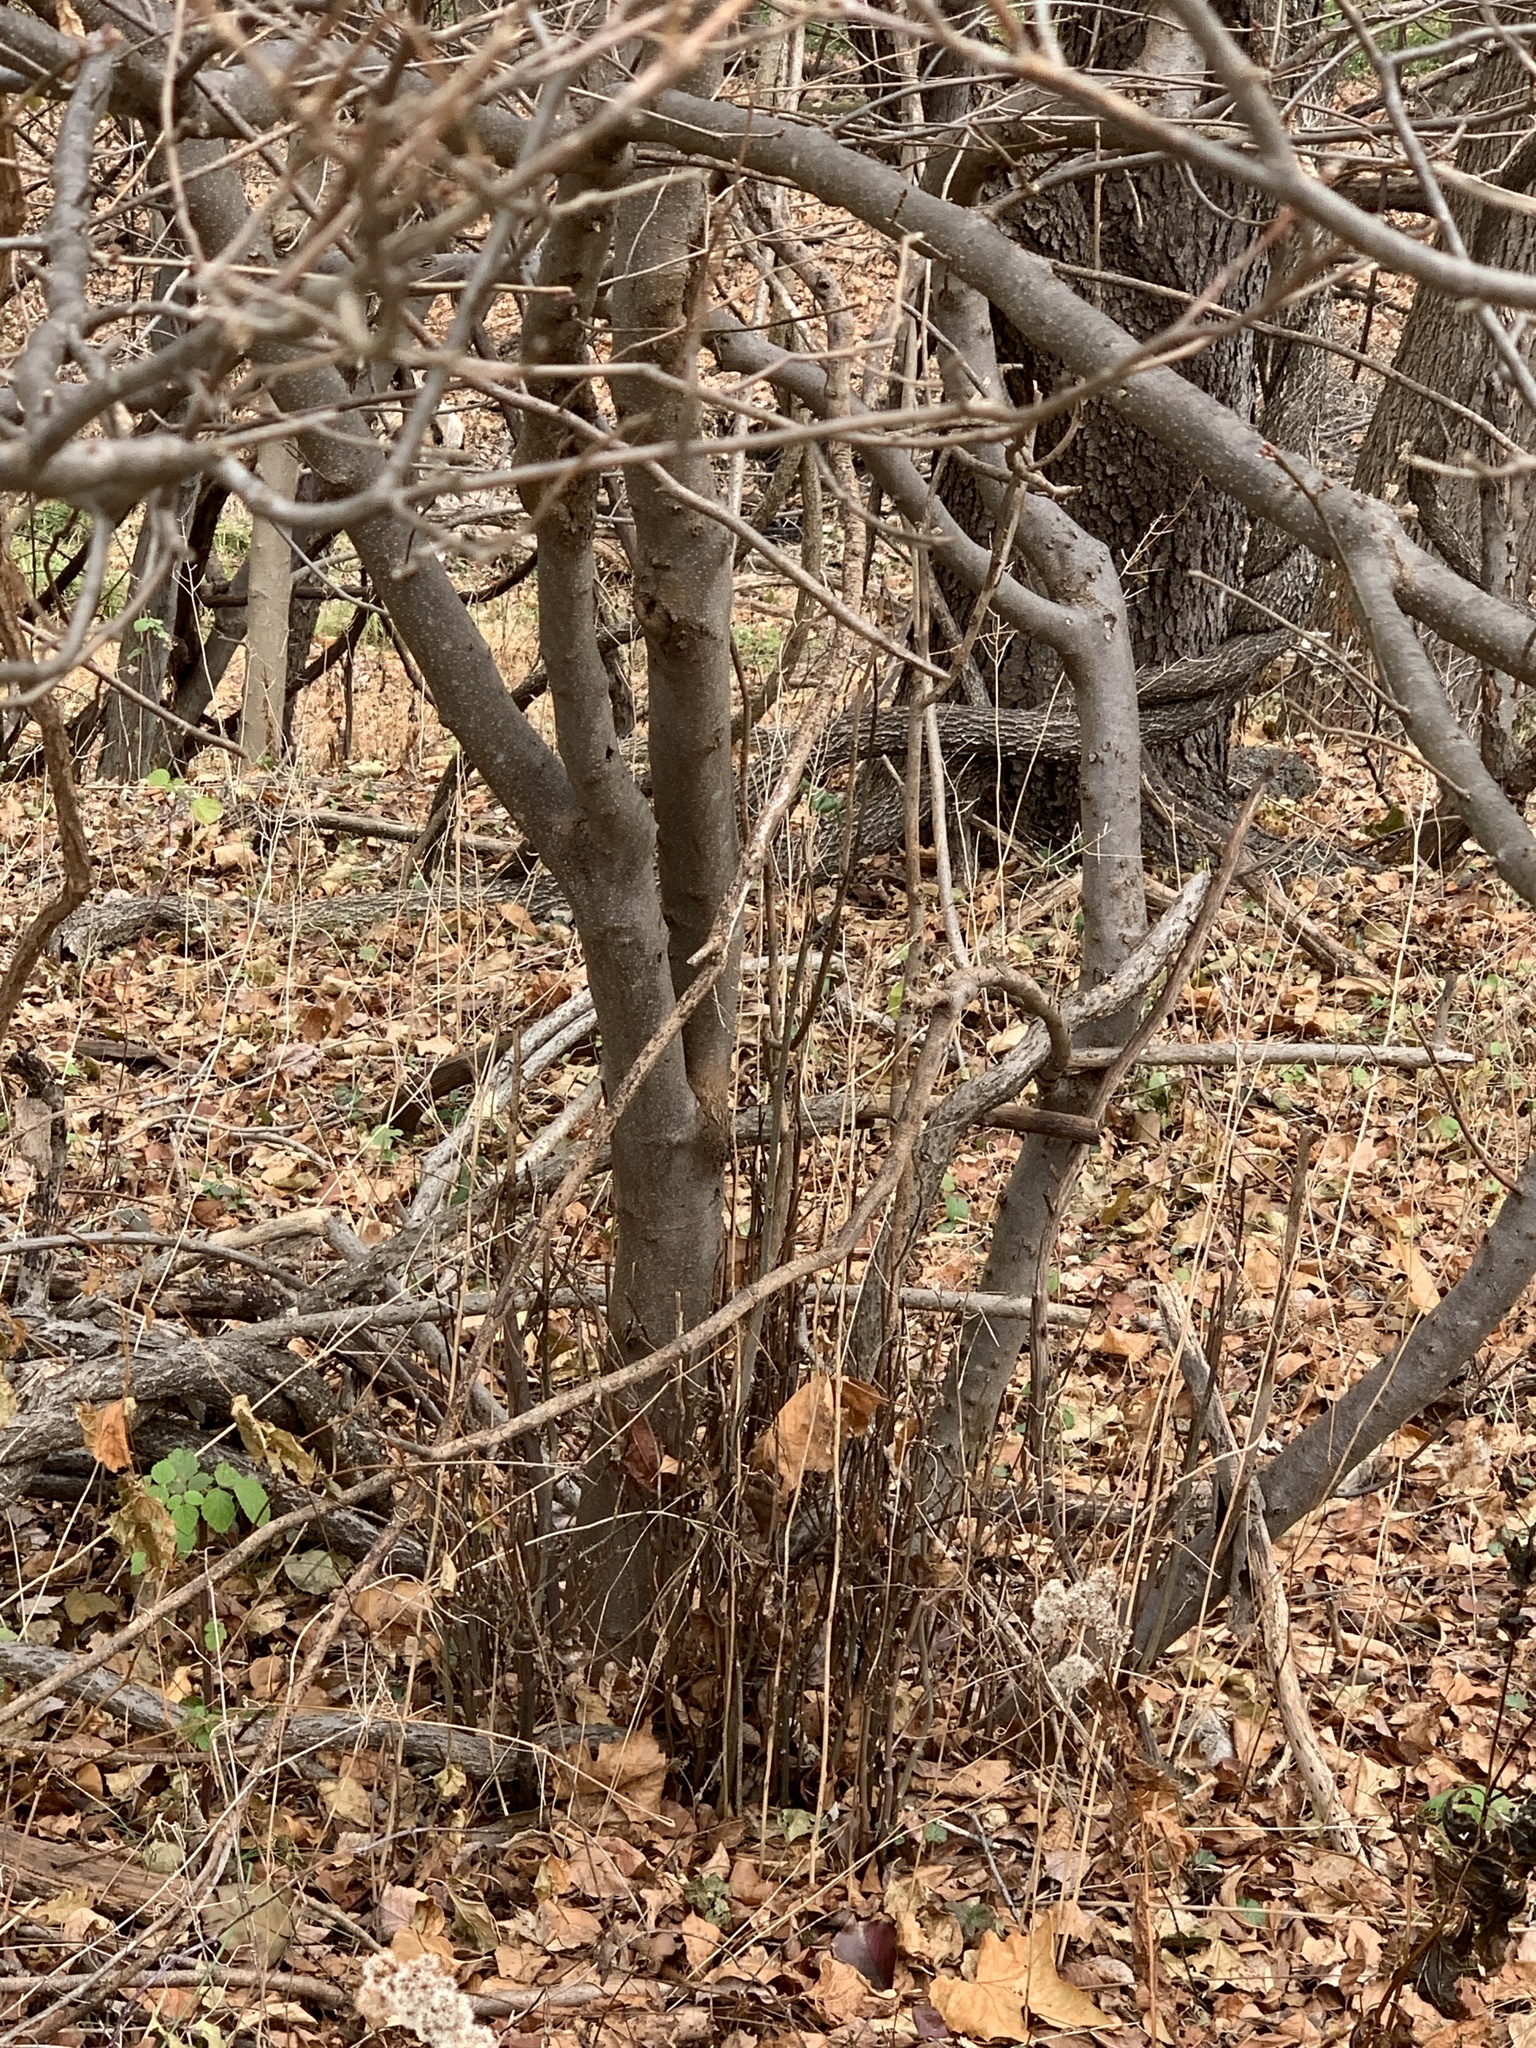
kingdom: Plantae
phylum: Tracheophyta
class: Magnoliopsida
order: Laurales
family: Lauraceae
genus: Lindera
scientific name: Lindera benzoin
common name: Spicebush
